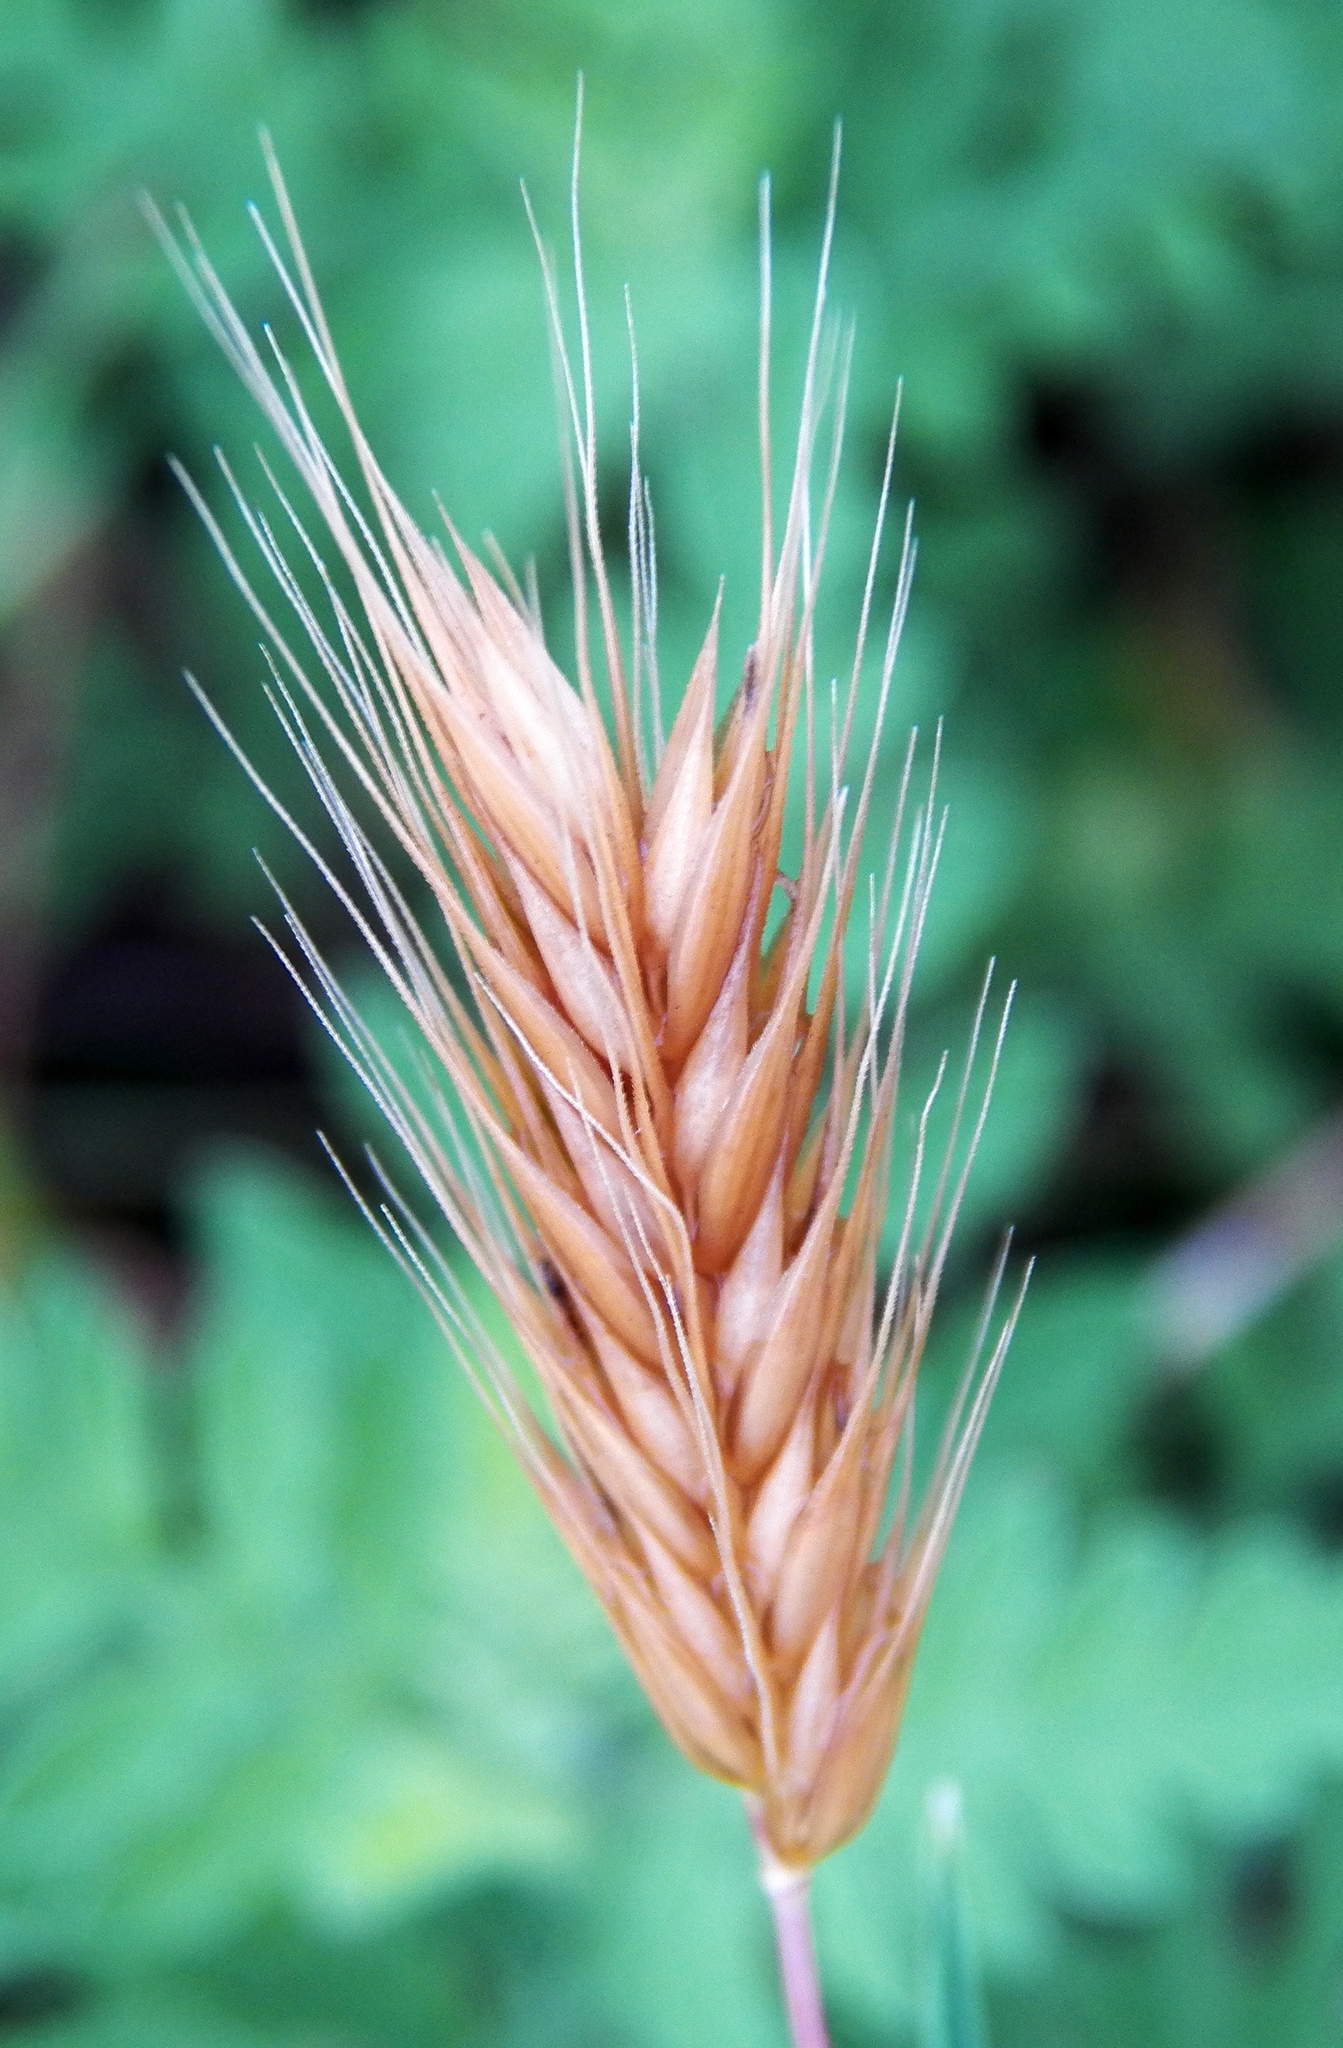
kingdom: Plantae
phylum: Tracheophyta
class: Liliopsida
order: Poales
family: Poaceae
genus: Hordeum
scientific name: Hordeum pusillum
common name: Little barley
